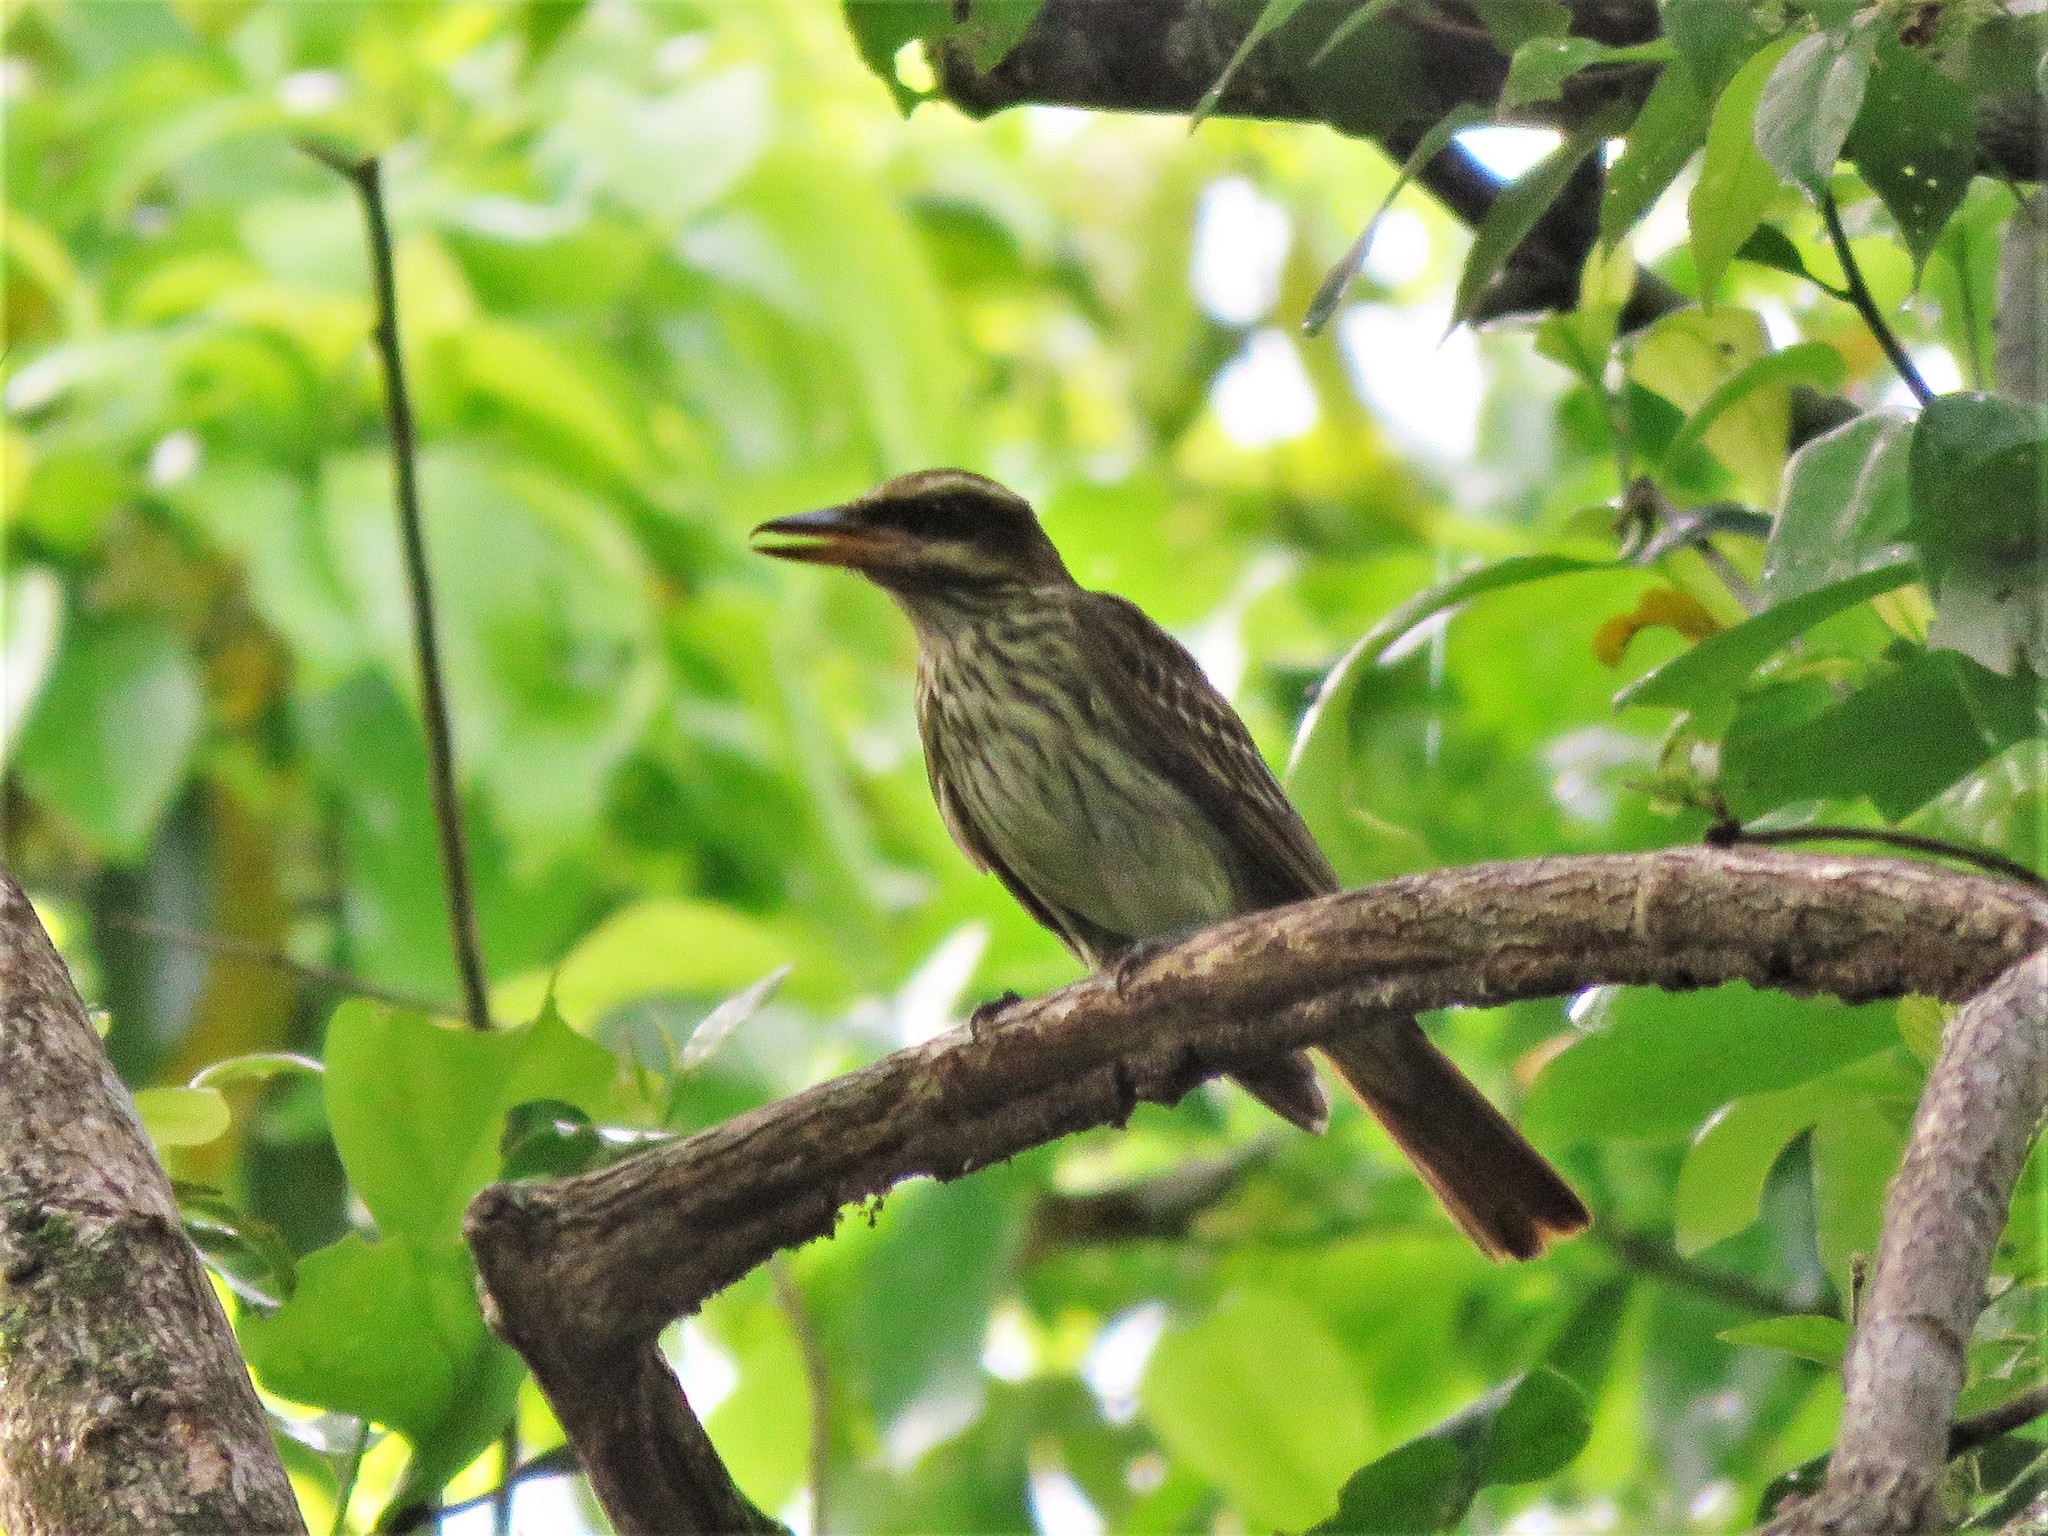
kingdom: Animalia
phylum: Chordata
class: Aves
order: Passeriformes
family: Tyrannidae
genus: Myiodynastes
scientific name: Myiodynastes maculatus
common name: Streaked flycatcher
